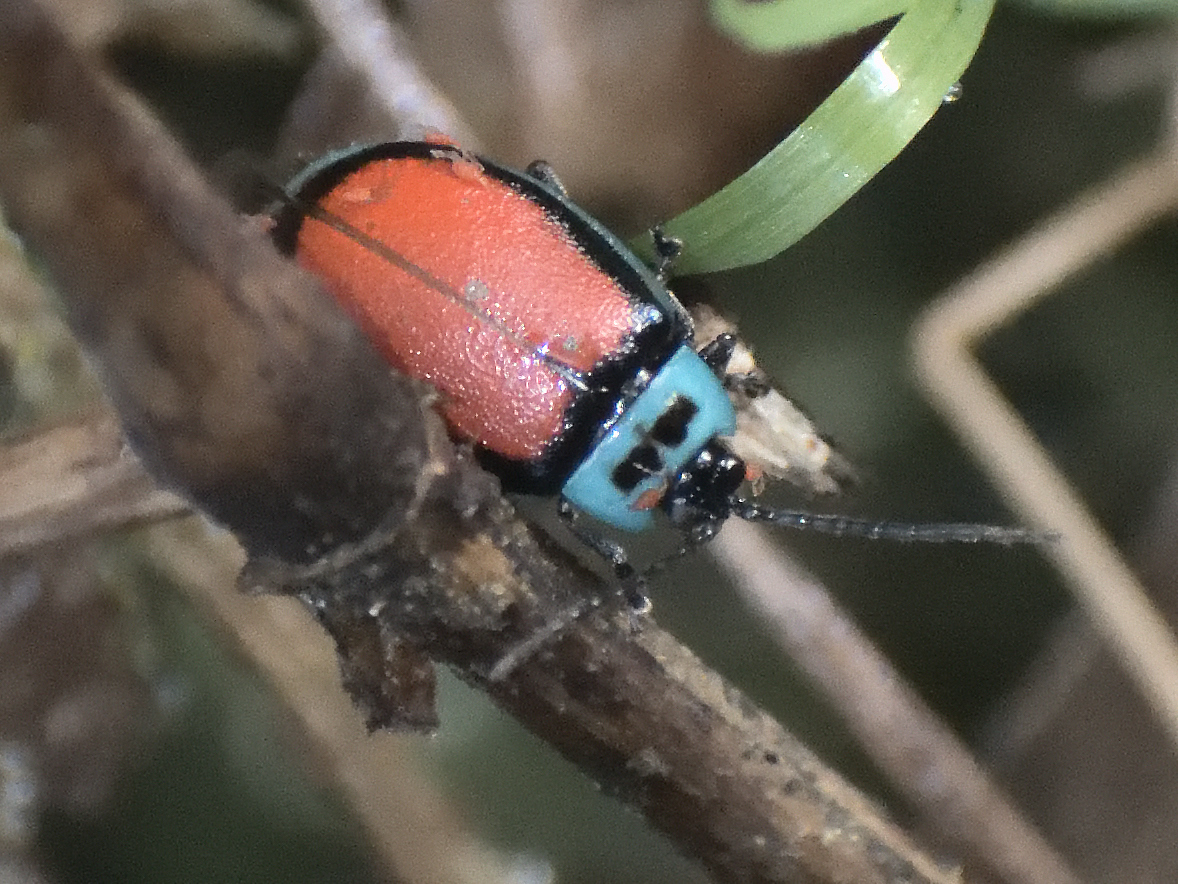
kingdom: Animalia
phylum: Arthropoda
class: Insecta
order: Coleoptera
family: Chrysomelidae
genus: Aspicela
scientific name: Aspicela
